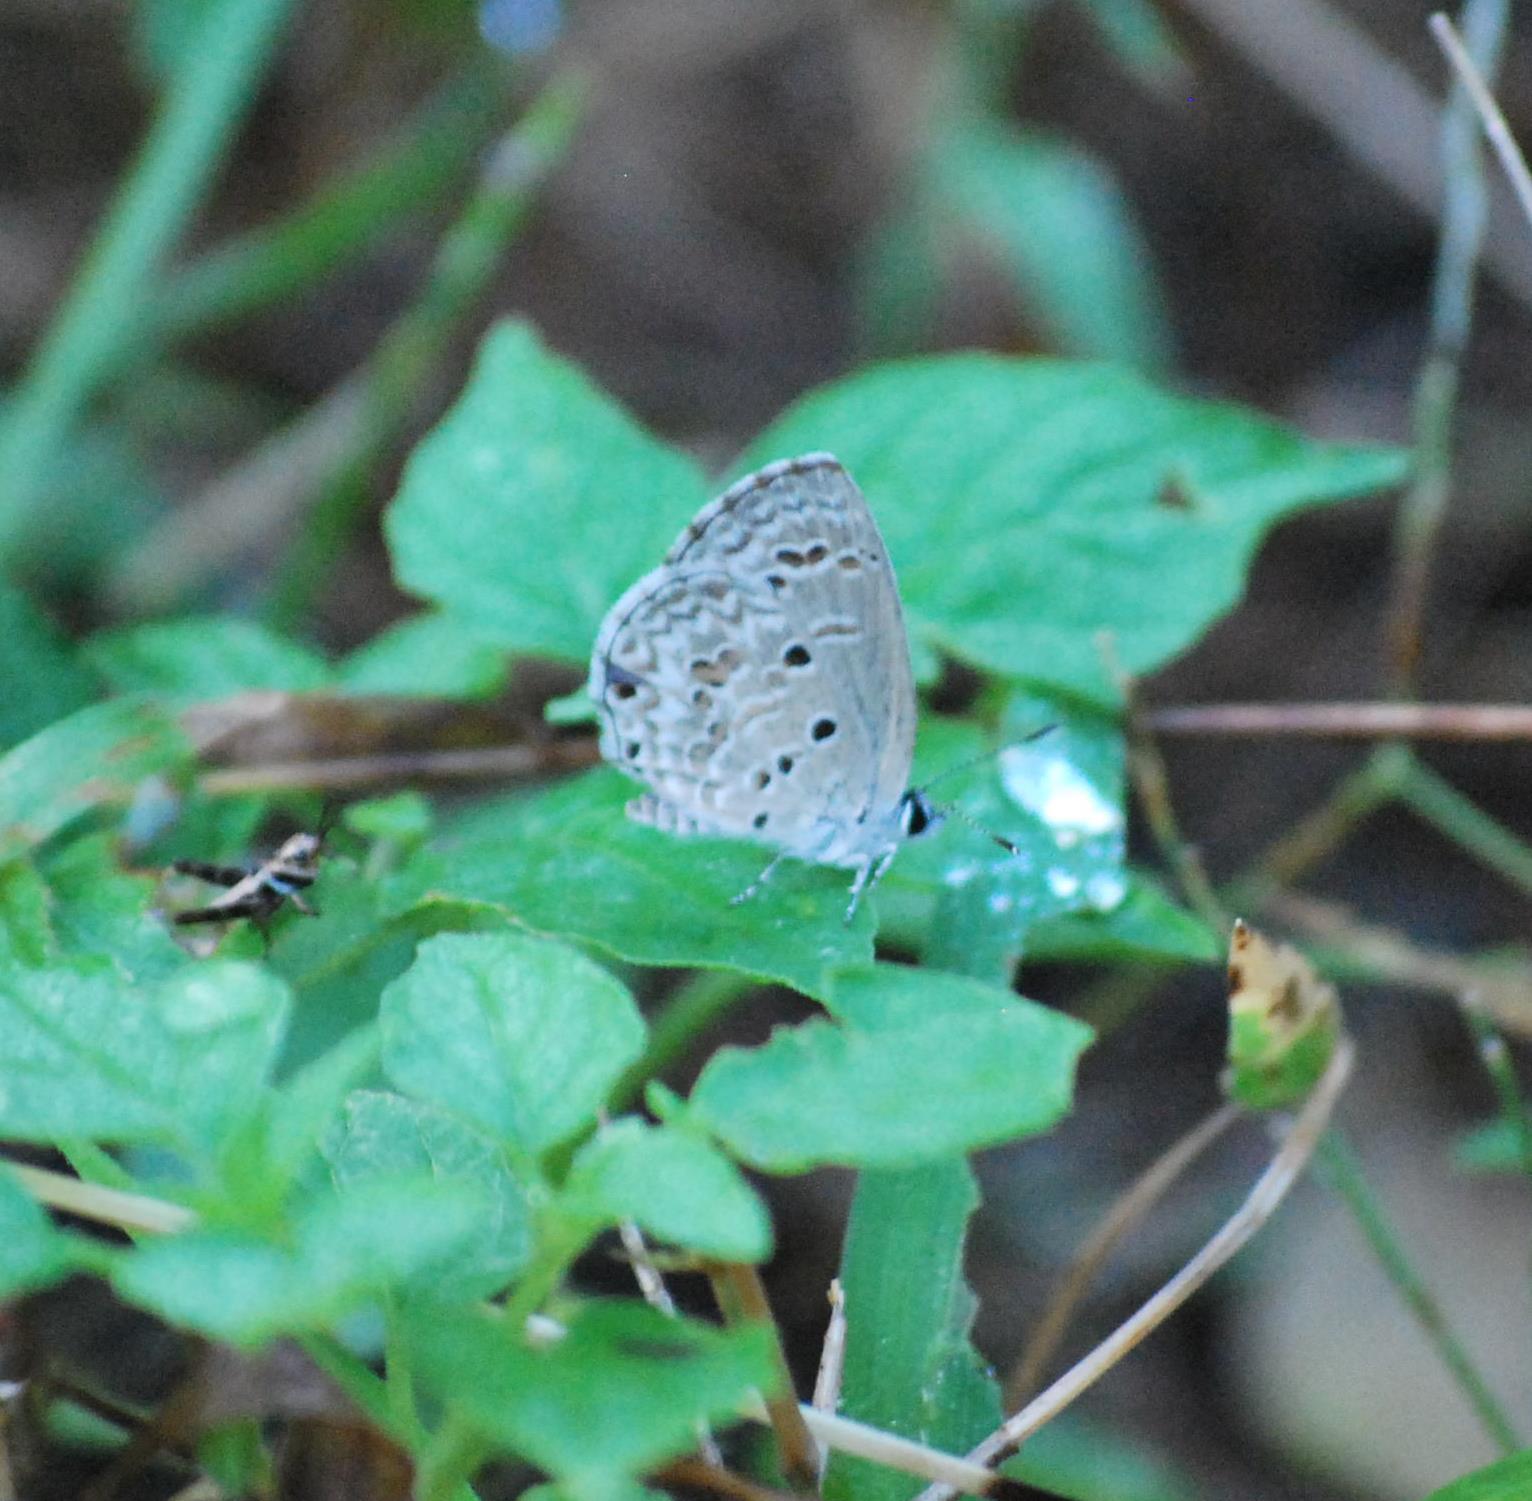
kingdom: Animalia
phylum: Arthropoda
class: Insecta
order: Lepidoptera
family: Lycaenidae
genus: Chilades
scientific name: Chilades laius
